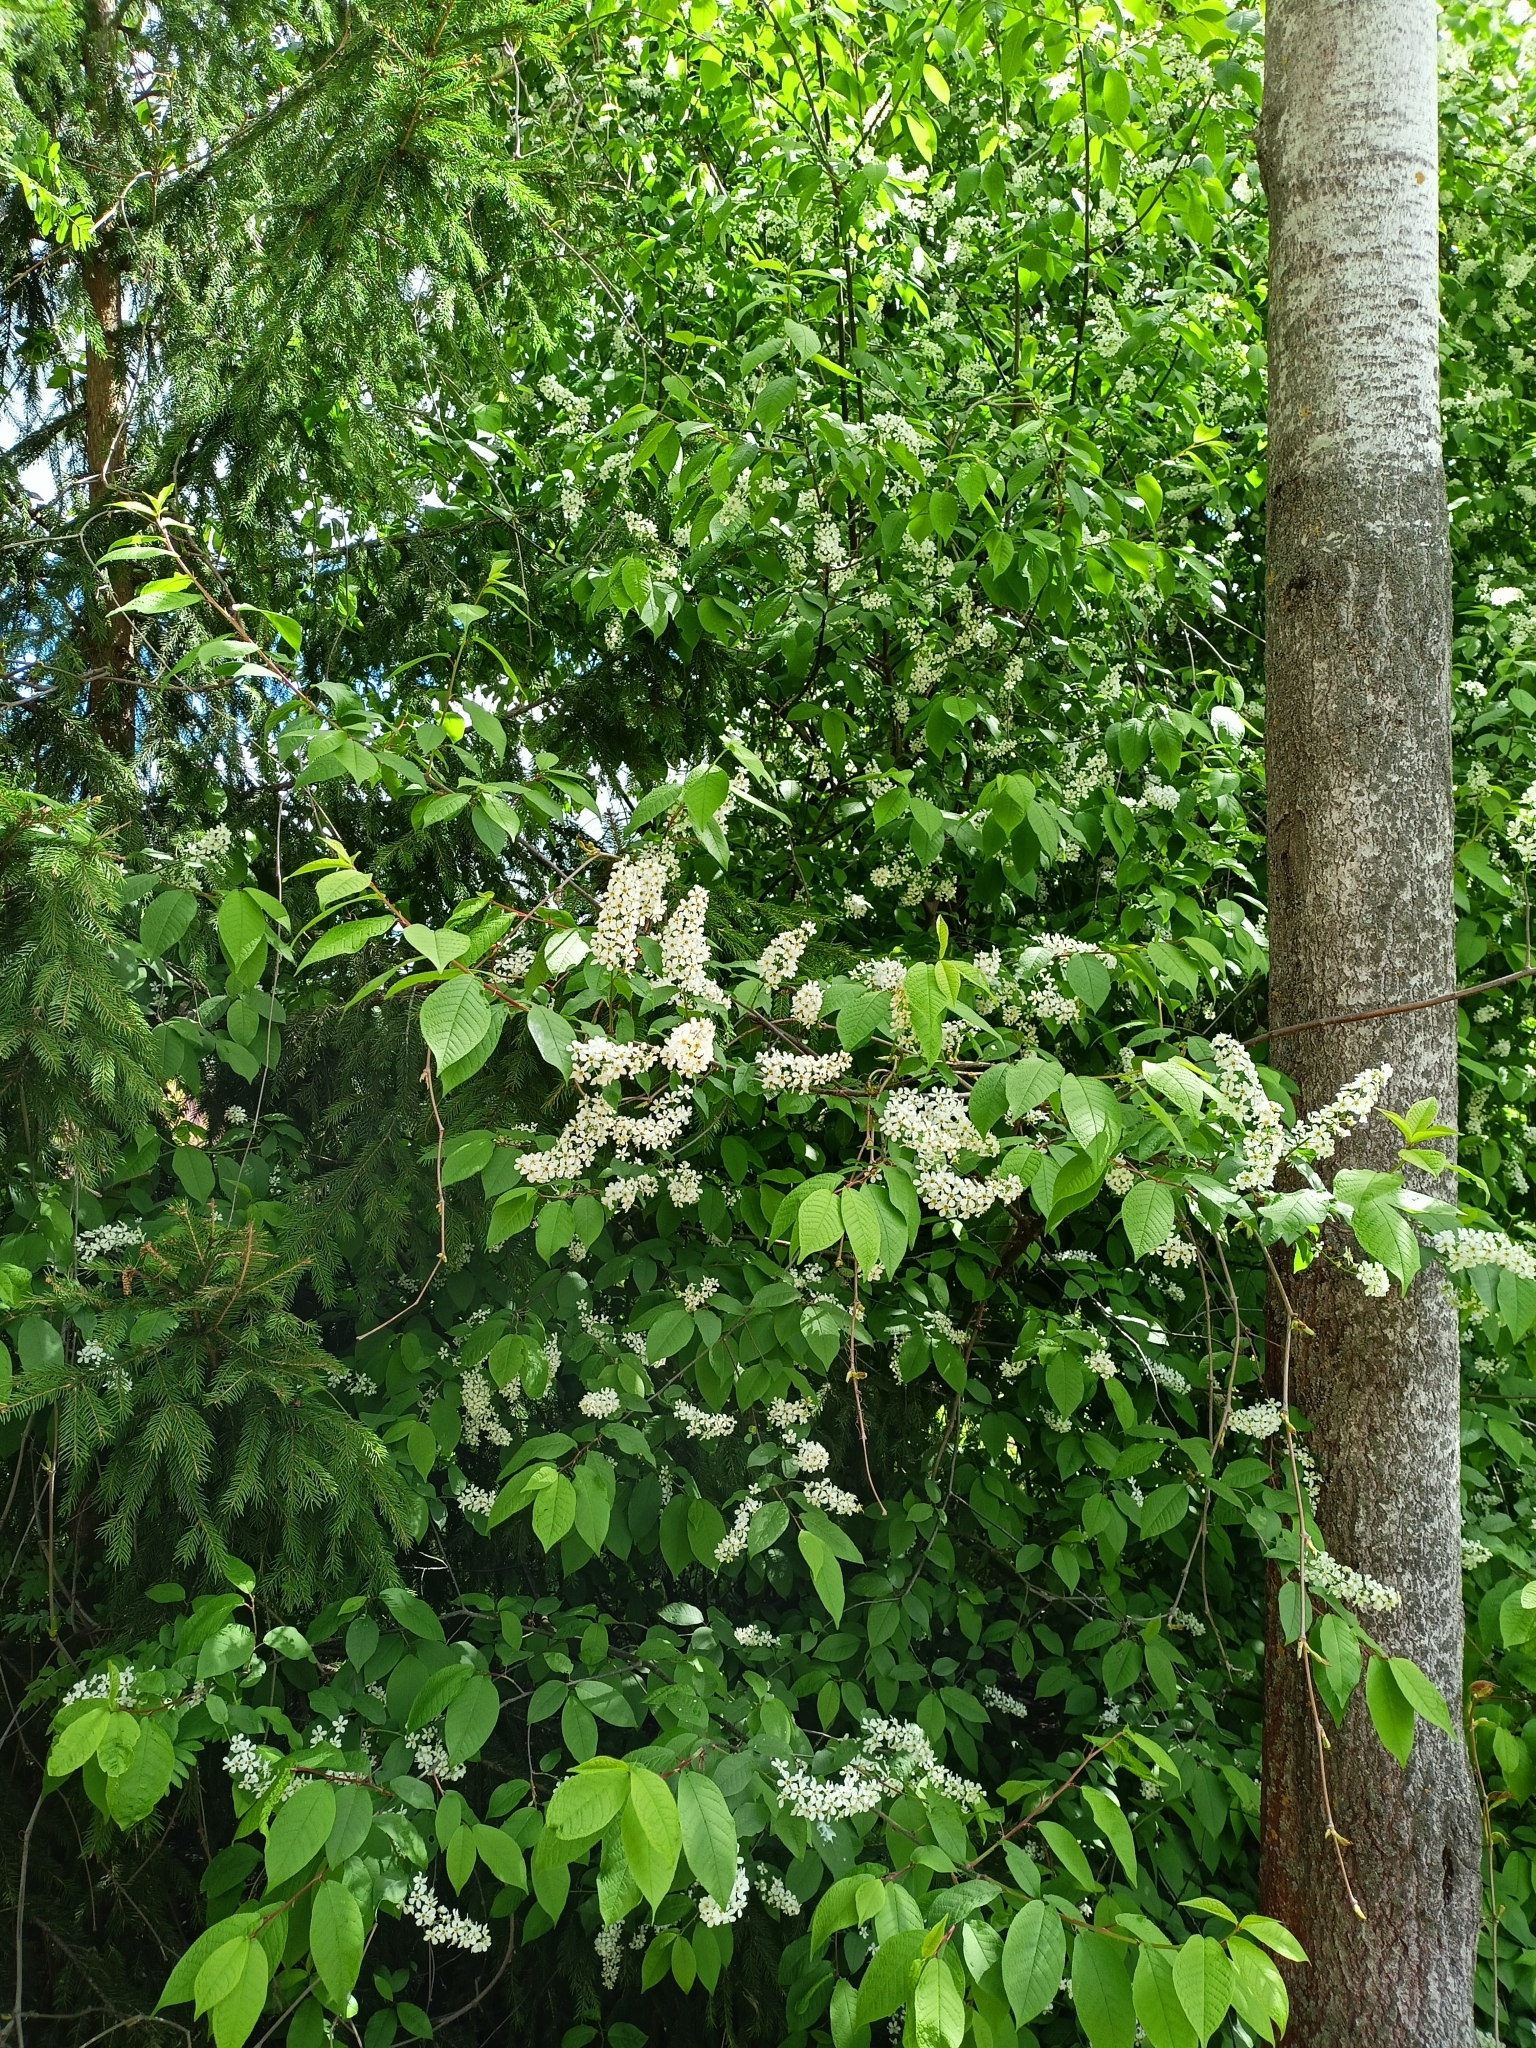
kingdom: Plantae
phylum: Tracheophyta
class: Magnoliopsida
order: Rosales
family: Rosaceae
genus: Prunus
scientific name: Prunus padus
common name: Bird cherry
